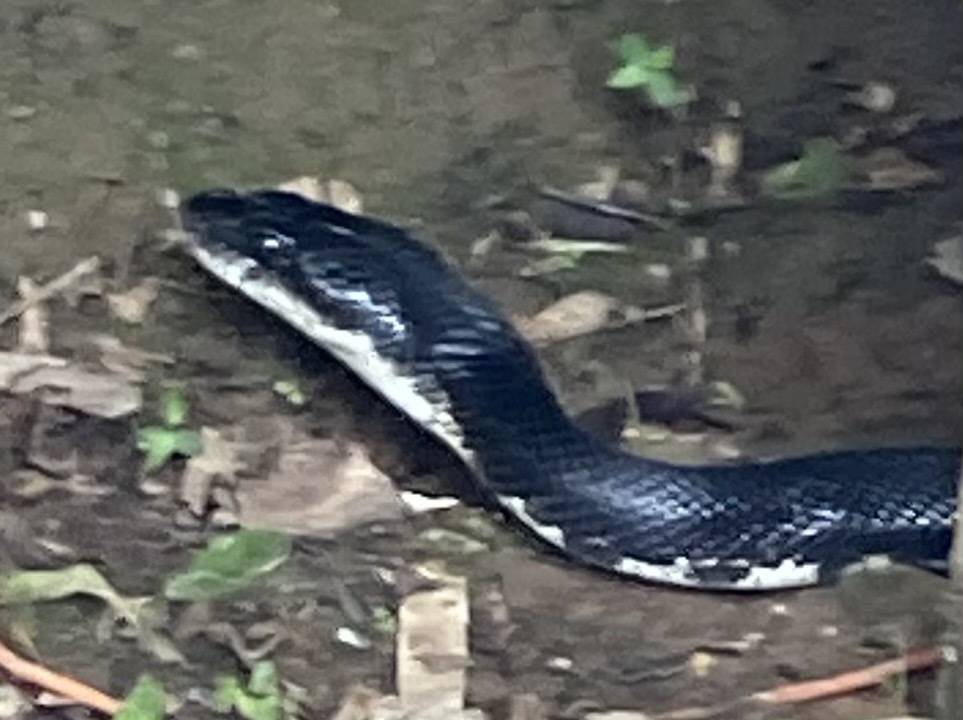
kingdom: Animalia
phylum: Chordata
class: Squamata
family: Colubridae
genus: Pantherophis
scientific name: Pantherophis obsoletus
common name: Black rat snake
